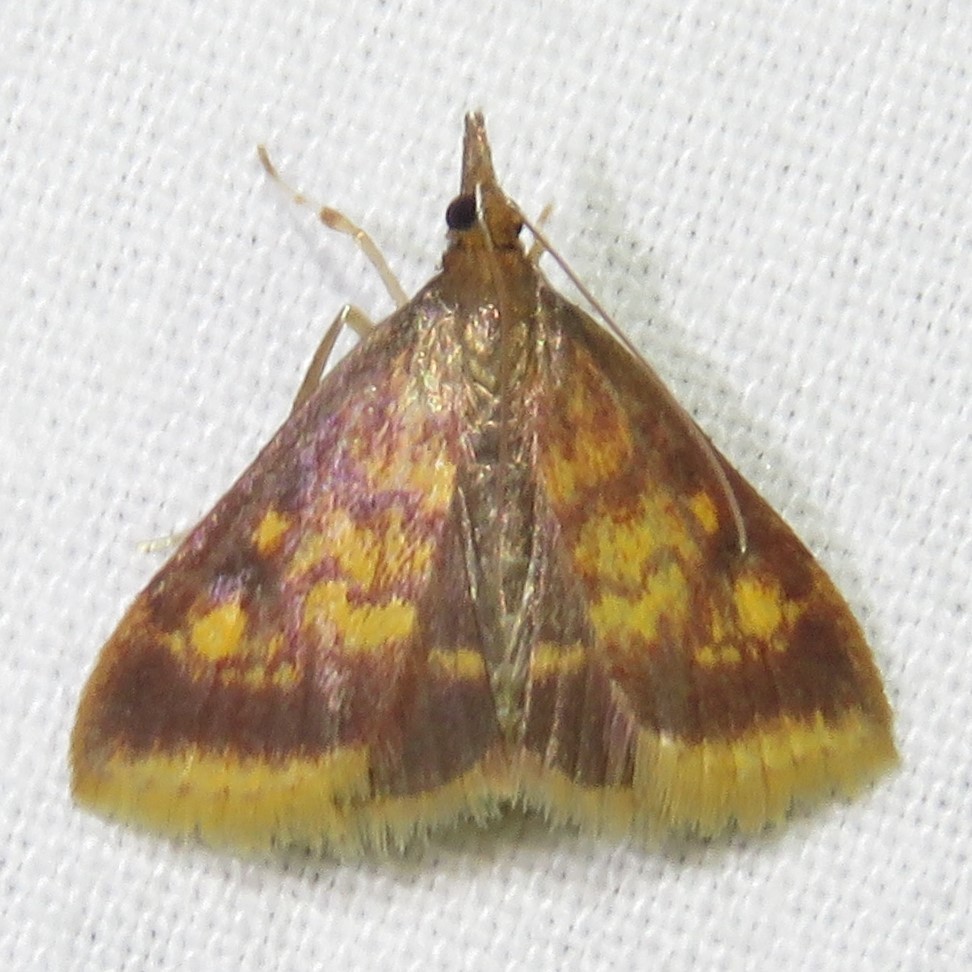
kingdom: Animalia
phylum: Arthropoda
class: Insecta
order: Lepidoptera
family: Crambidae
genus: Pyrausta
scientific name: Pyrausta acrionalis
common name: Mint-loving pyrausta moth
